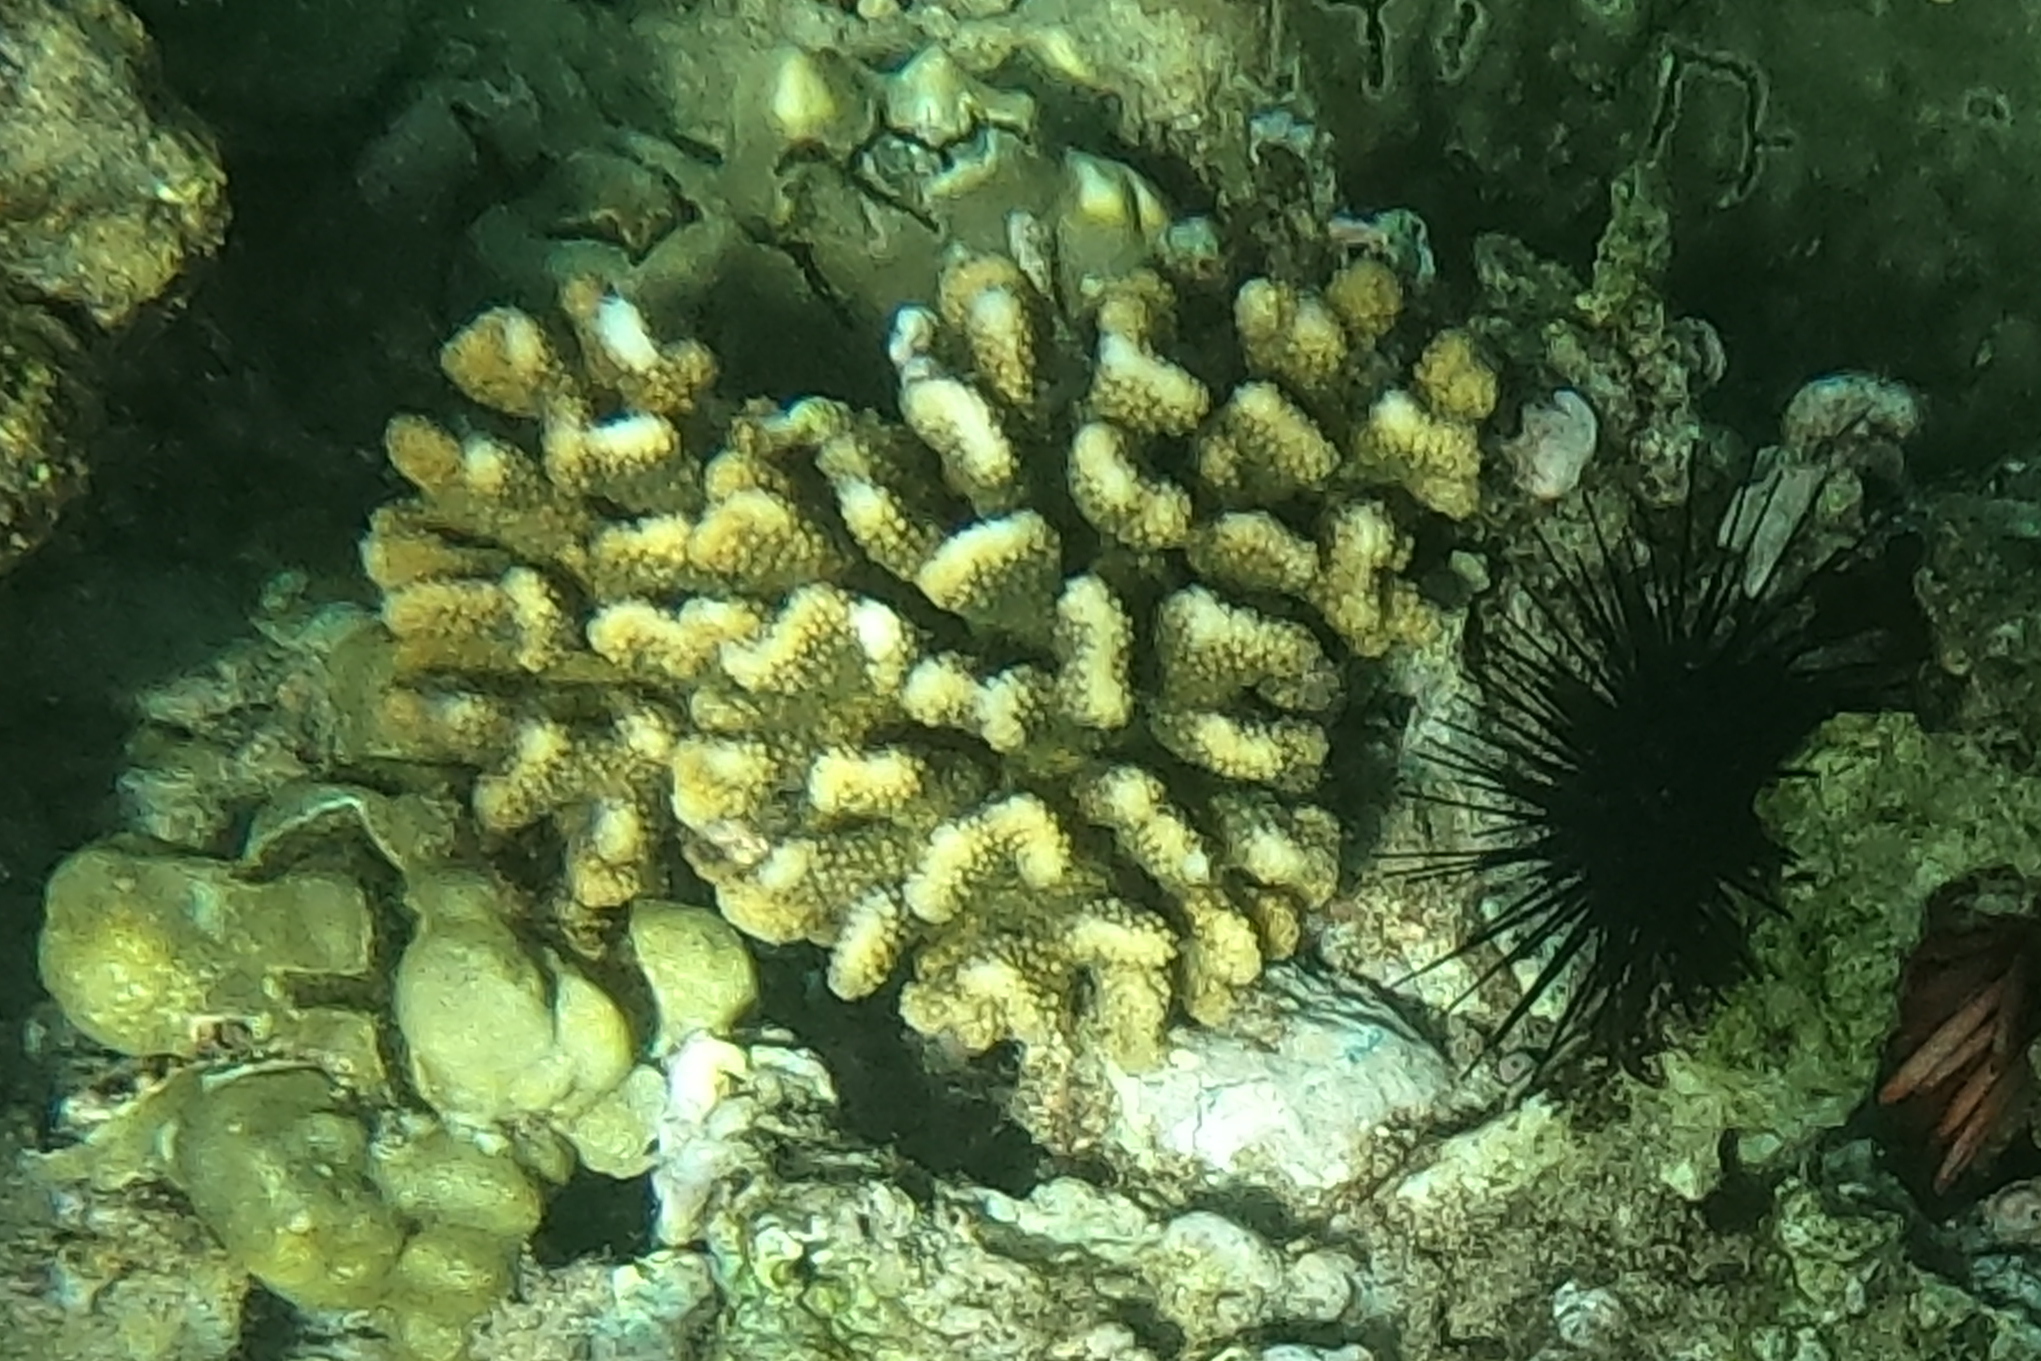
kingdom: Animalia
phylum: Cnidaria
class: Anthozoa
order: Scleractinia
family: Pocilloporidae
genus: Pocillopora
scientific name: Pocillopora meandrina
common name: Cauliflower coral
